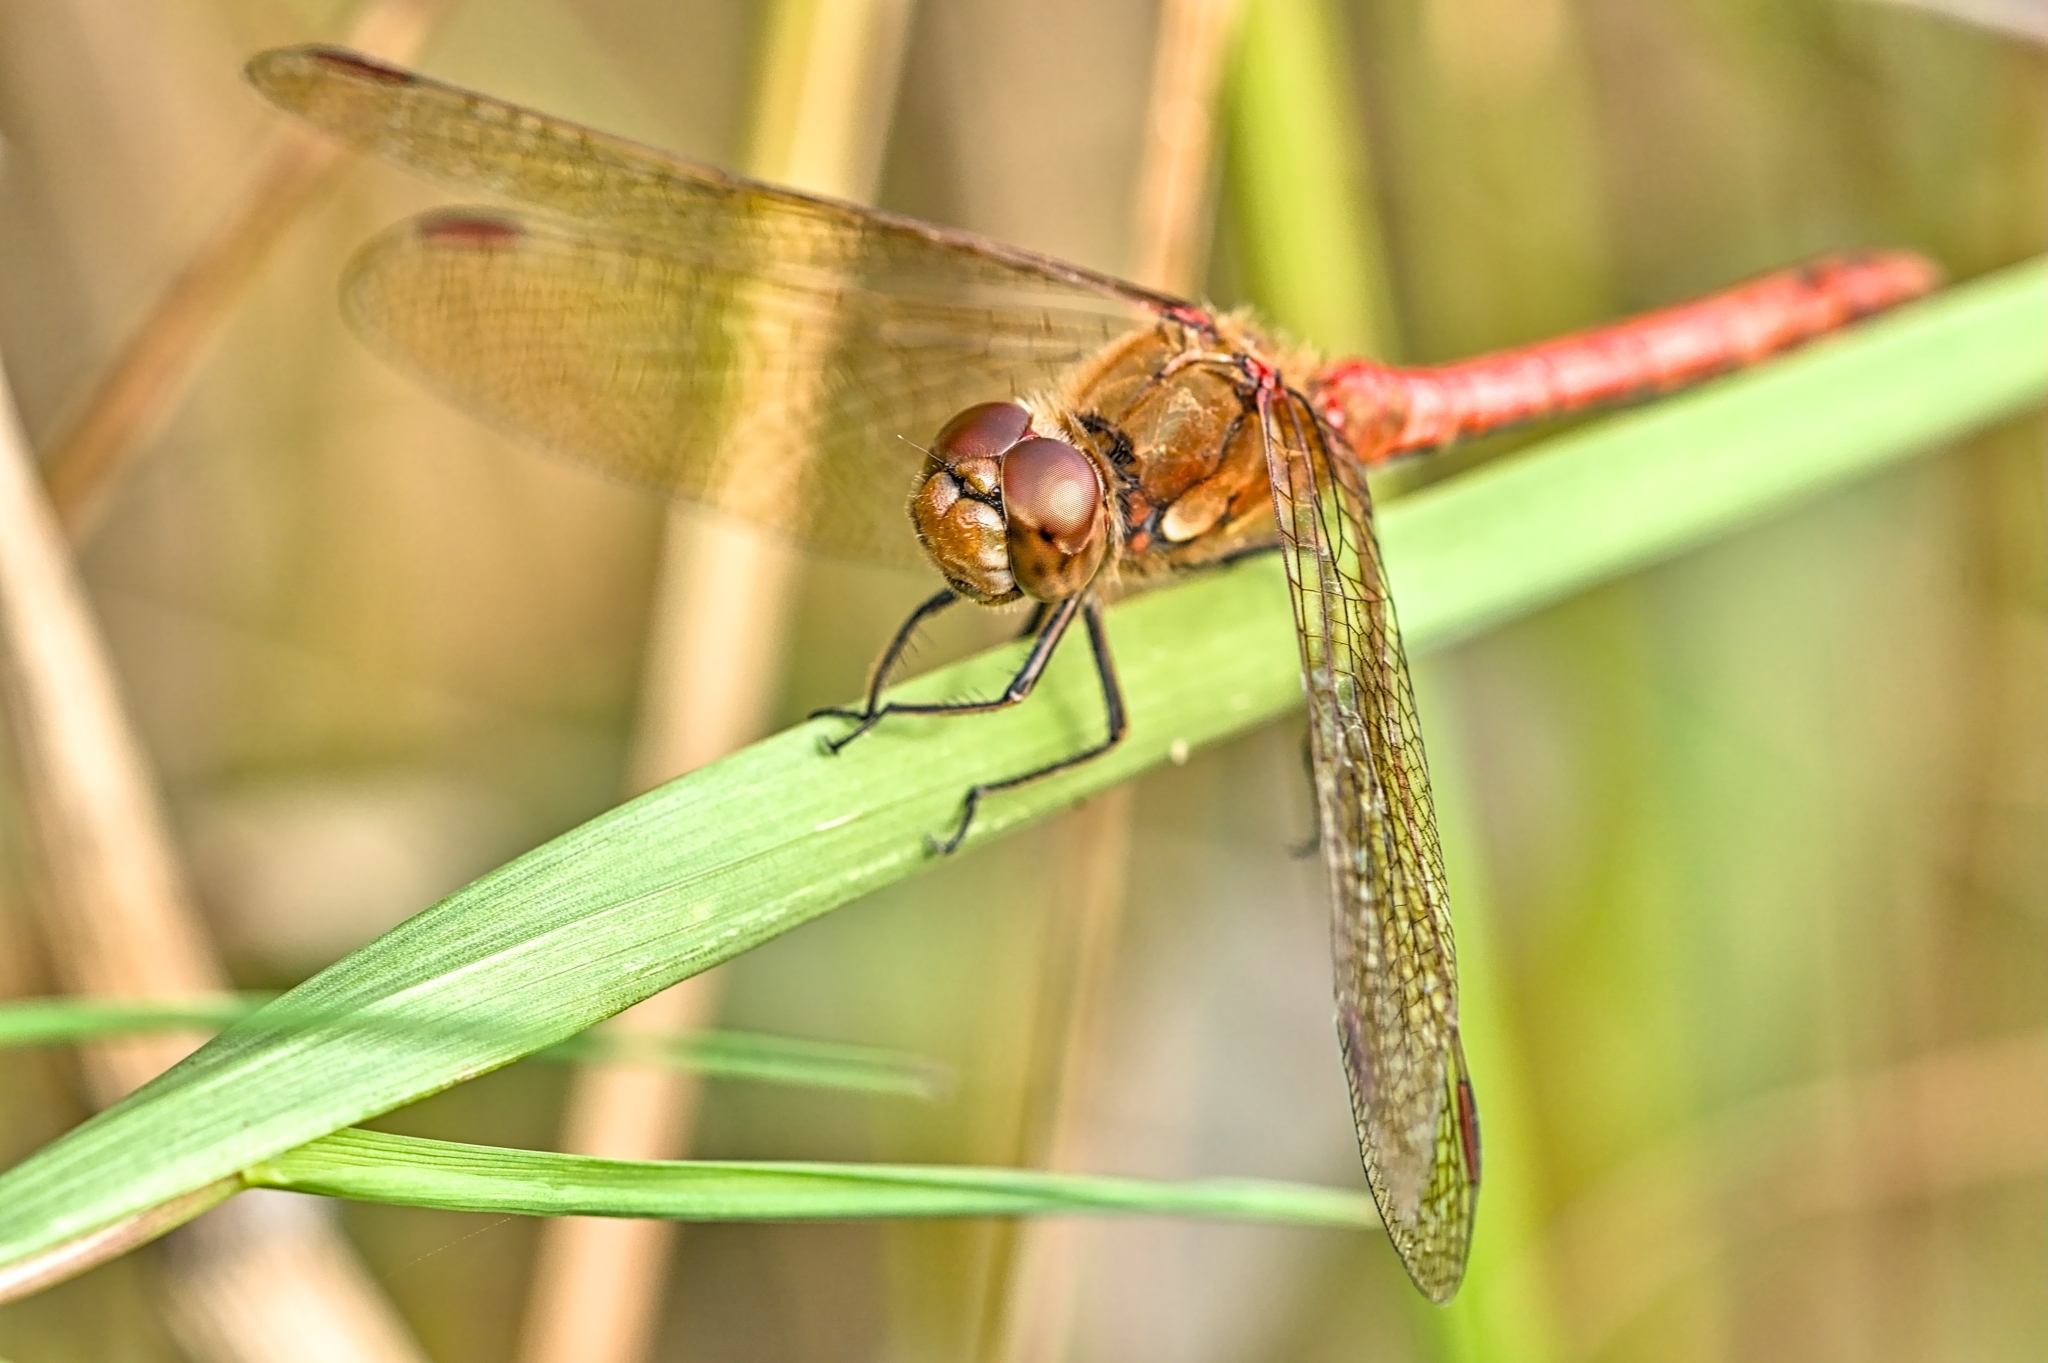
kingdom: Animalia
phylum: Arthropoda
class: Insecta
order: Odonata
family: Libellulidae
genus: Sympetrum
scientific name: Sympetrum striolatum
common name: Common darter
